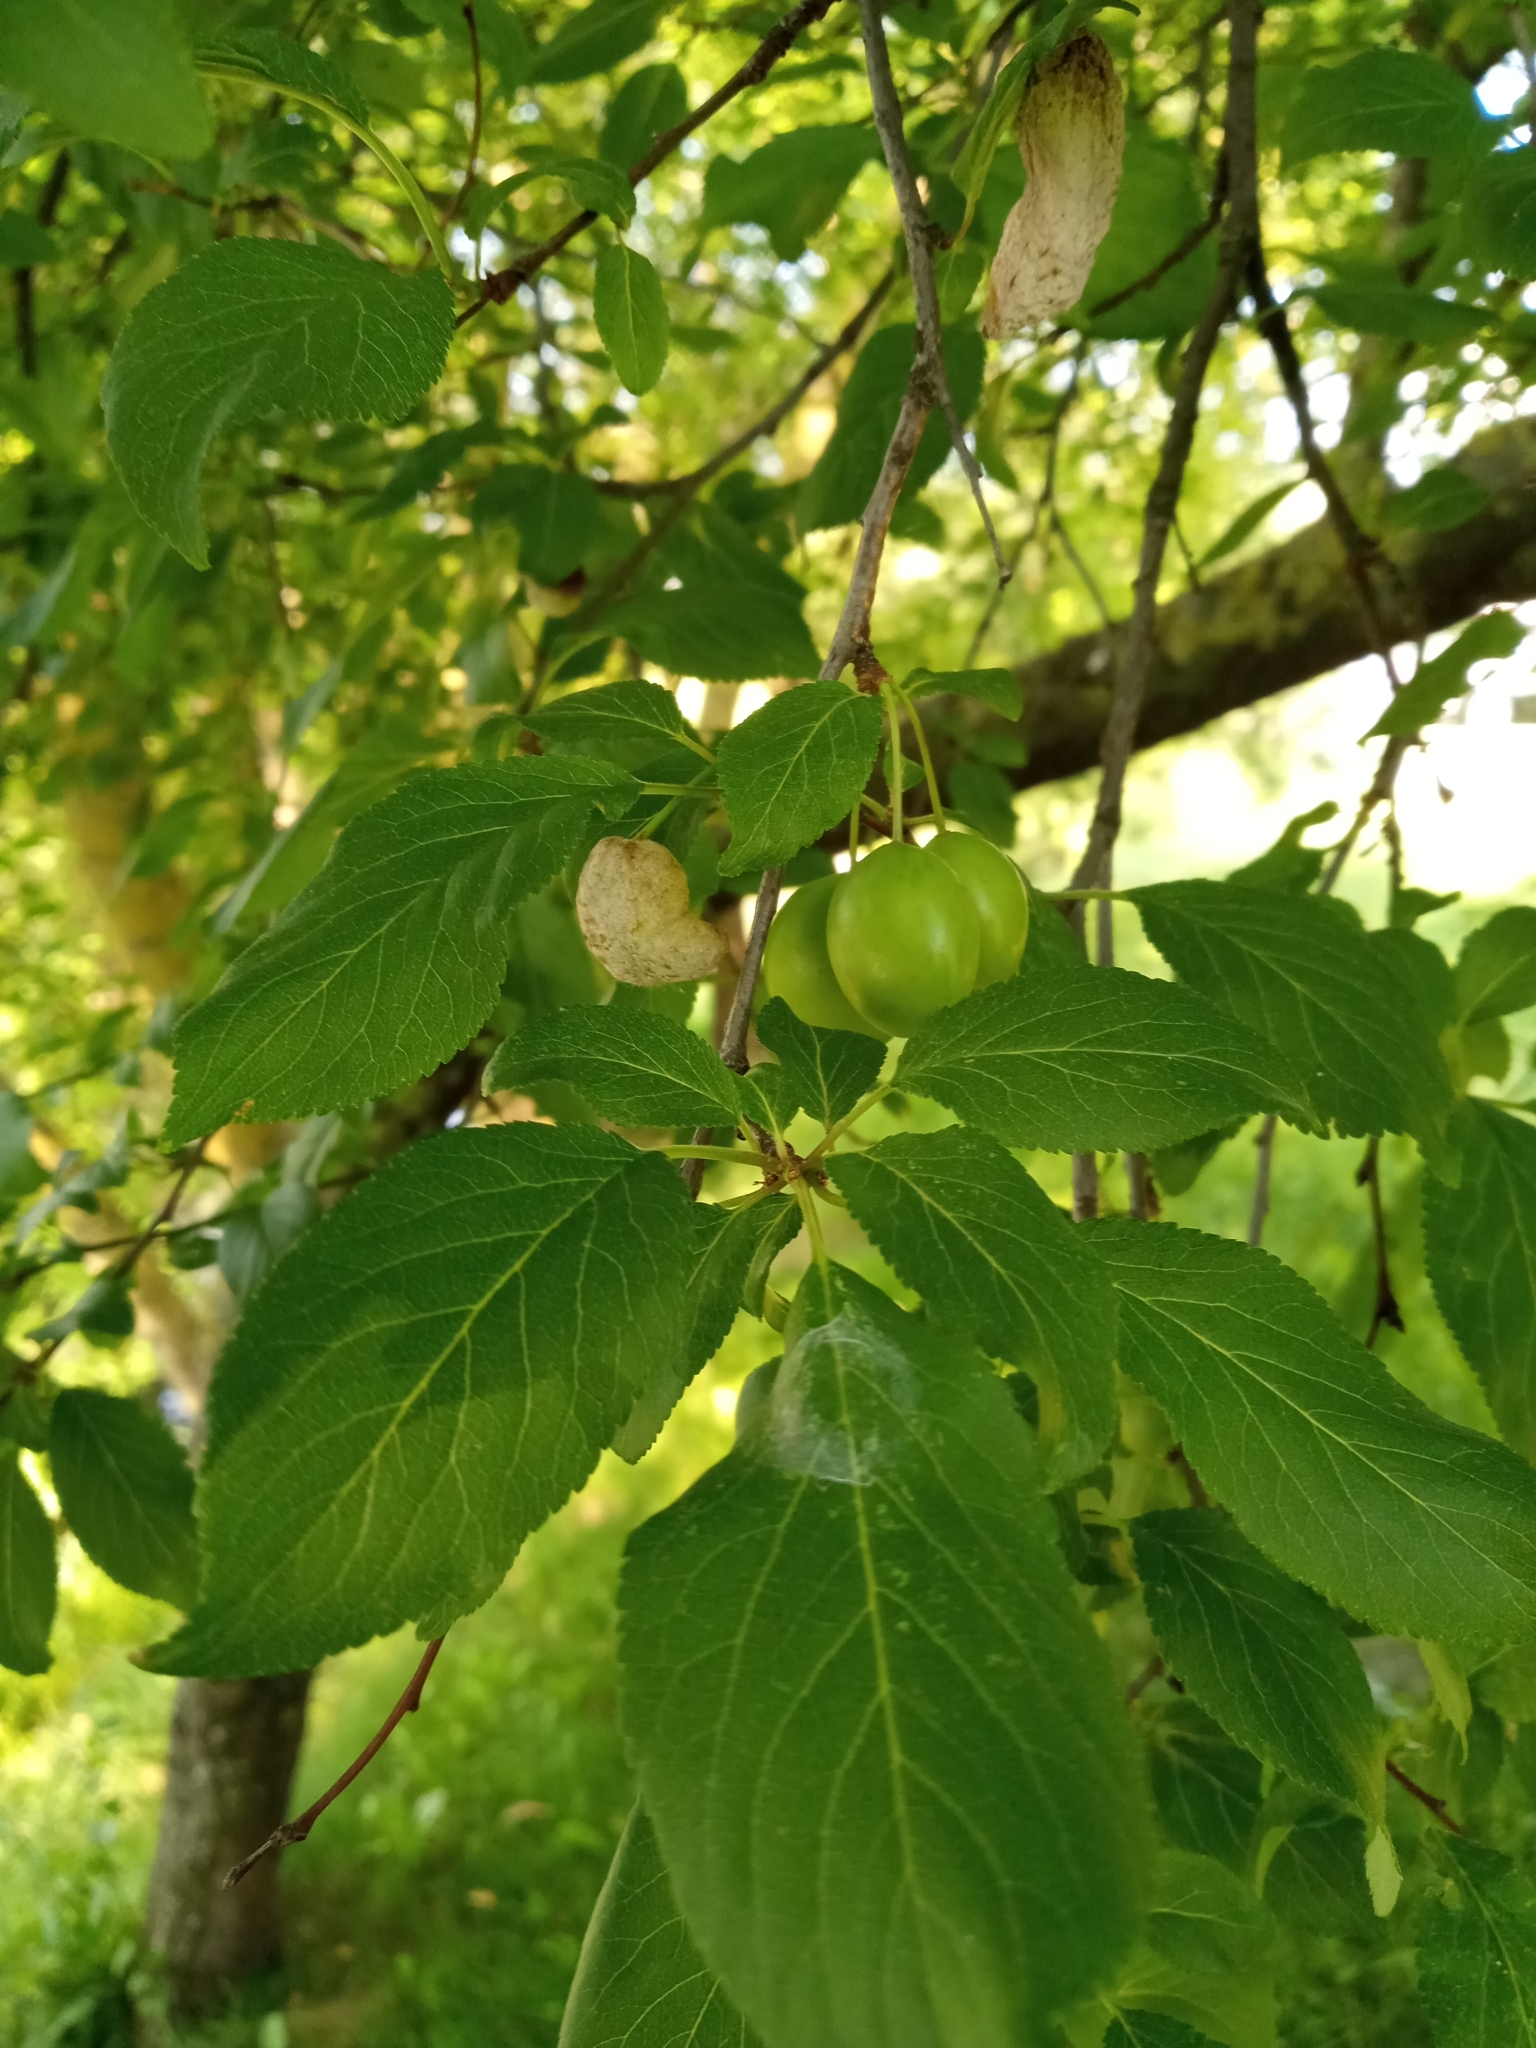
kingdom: Fungi
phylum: Ascomycota
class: Taphrinomycetes
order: Taphrinales
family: Taphrinaceae
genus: Taphrina
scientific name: Taphrina pruni
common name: Pocket plum
